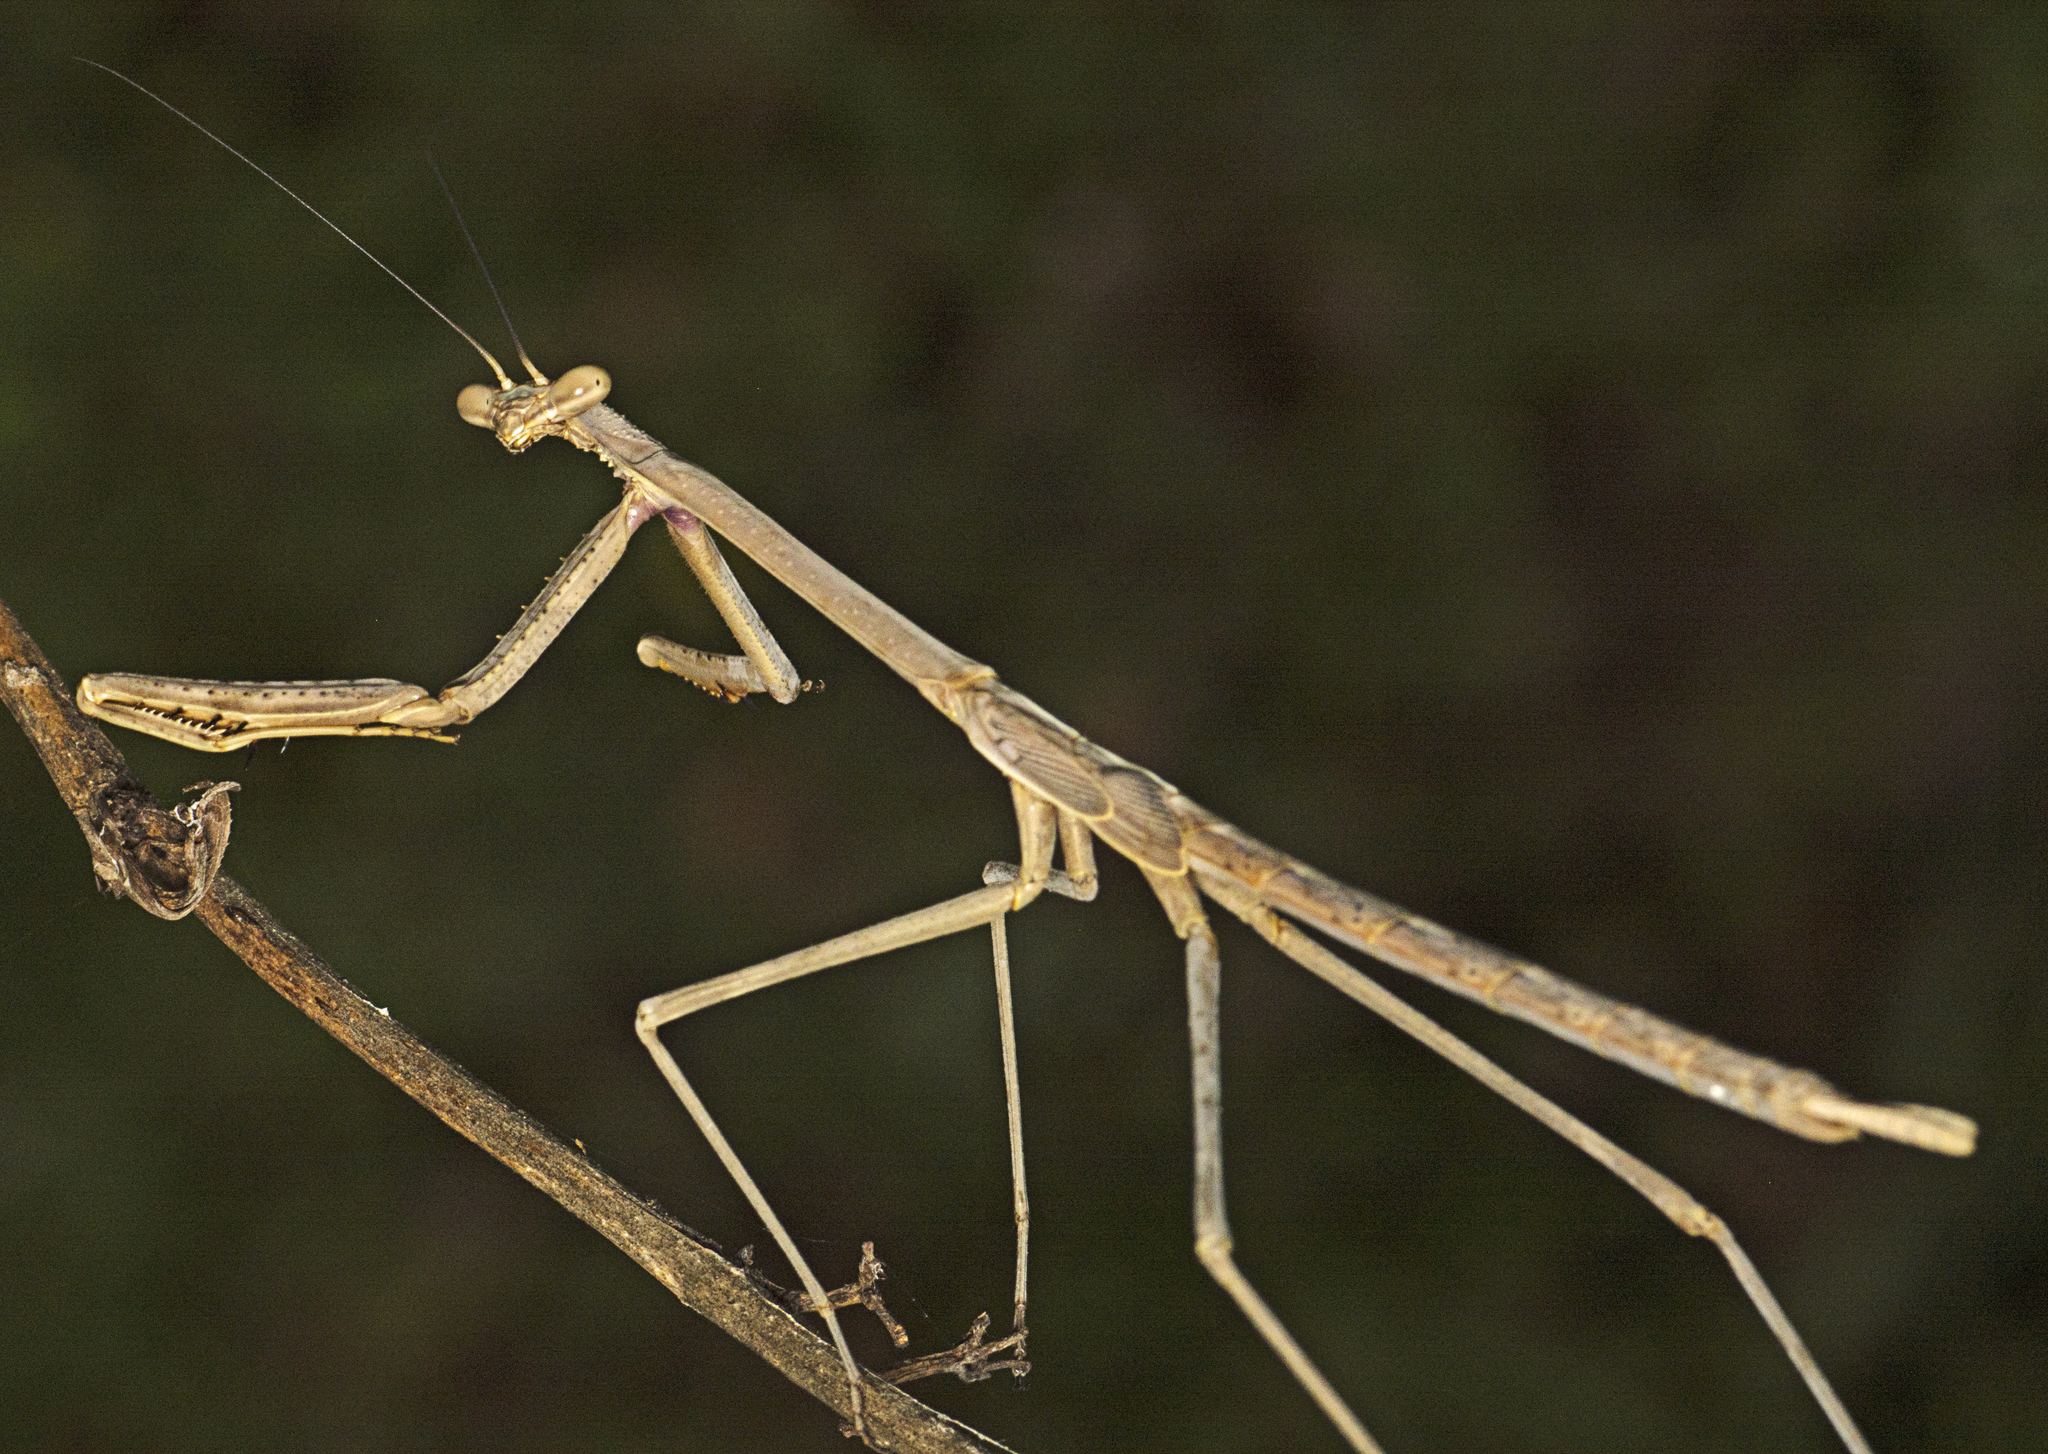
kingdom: Animalia
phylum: Arthropoda
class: Insecta
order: Mantodea
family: Mantidae
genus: Archimantis
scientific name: Archimantis latistyla
